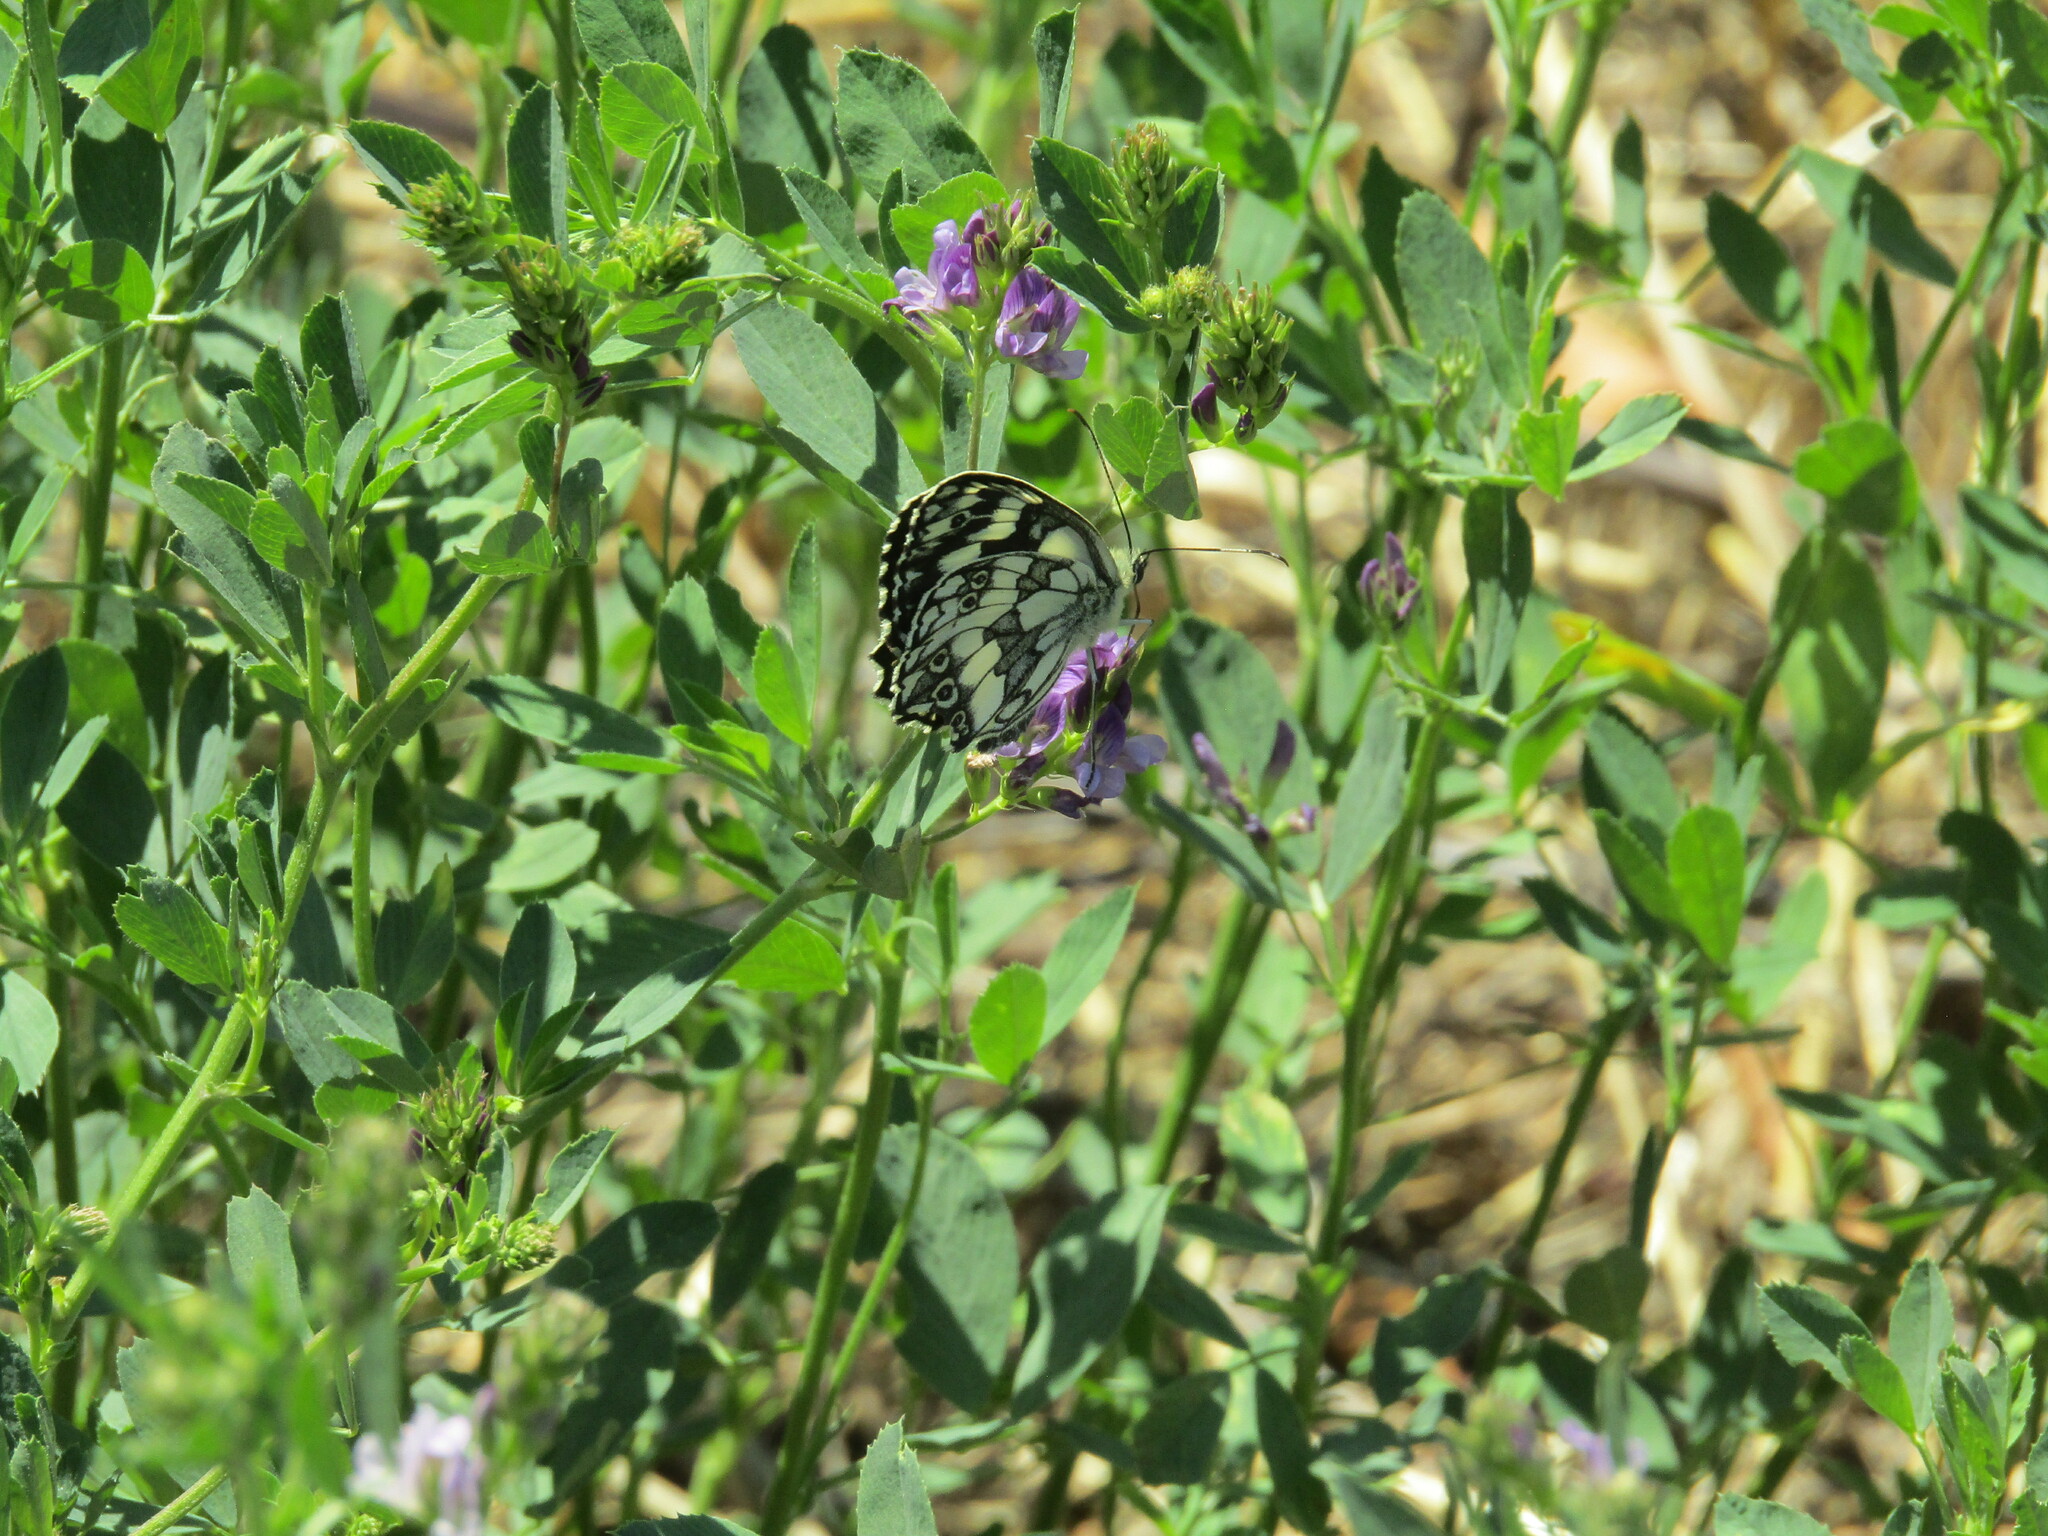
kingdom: Animalia
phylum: Arthropoda
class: Insecta
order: Lepidoptera
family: Nymphalidae
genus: Melanargia
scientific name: Melanargia galathea
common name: Marbled white
